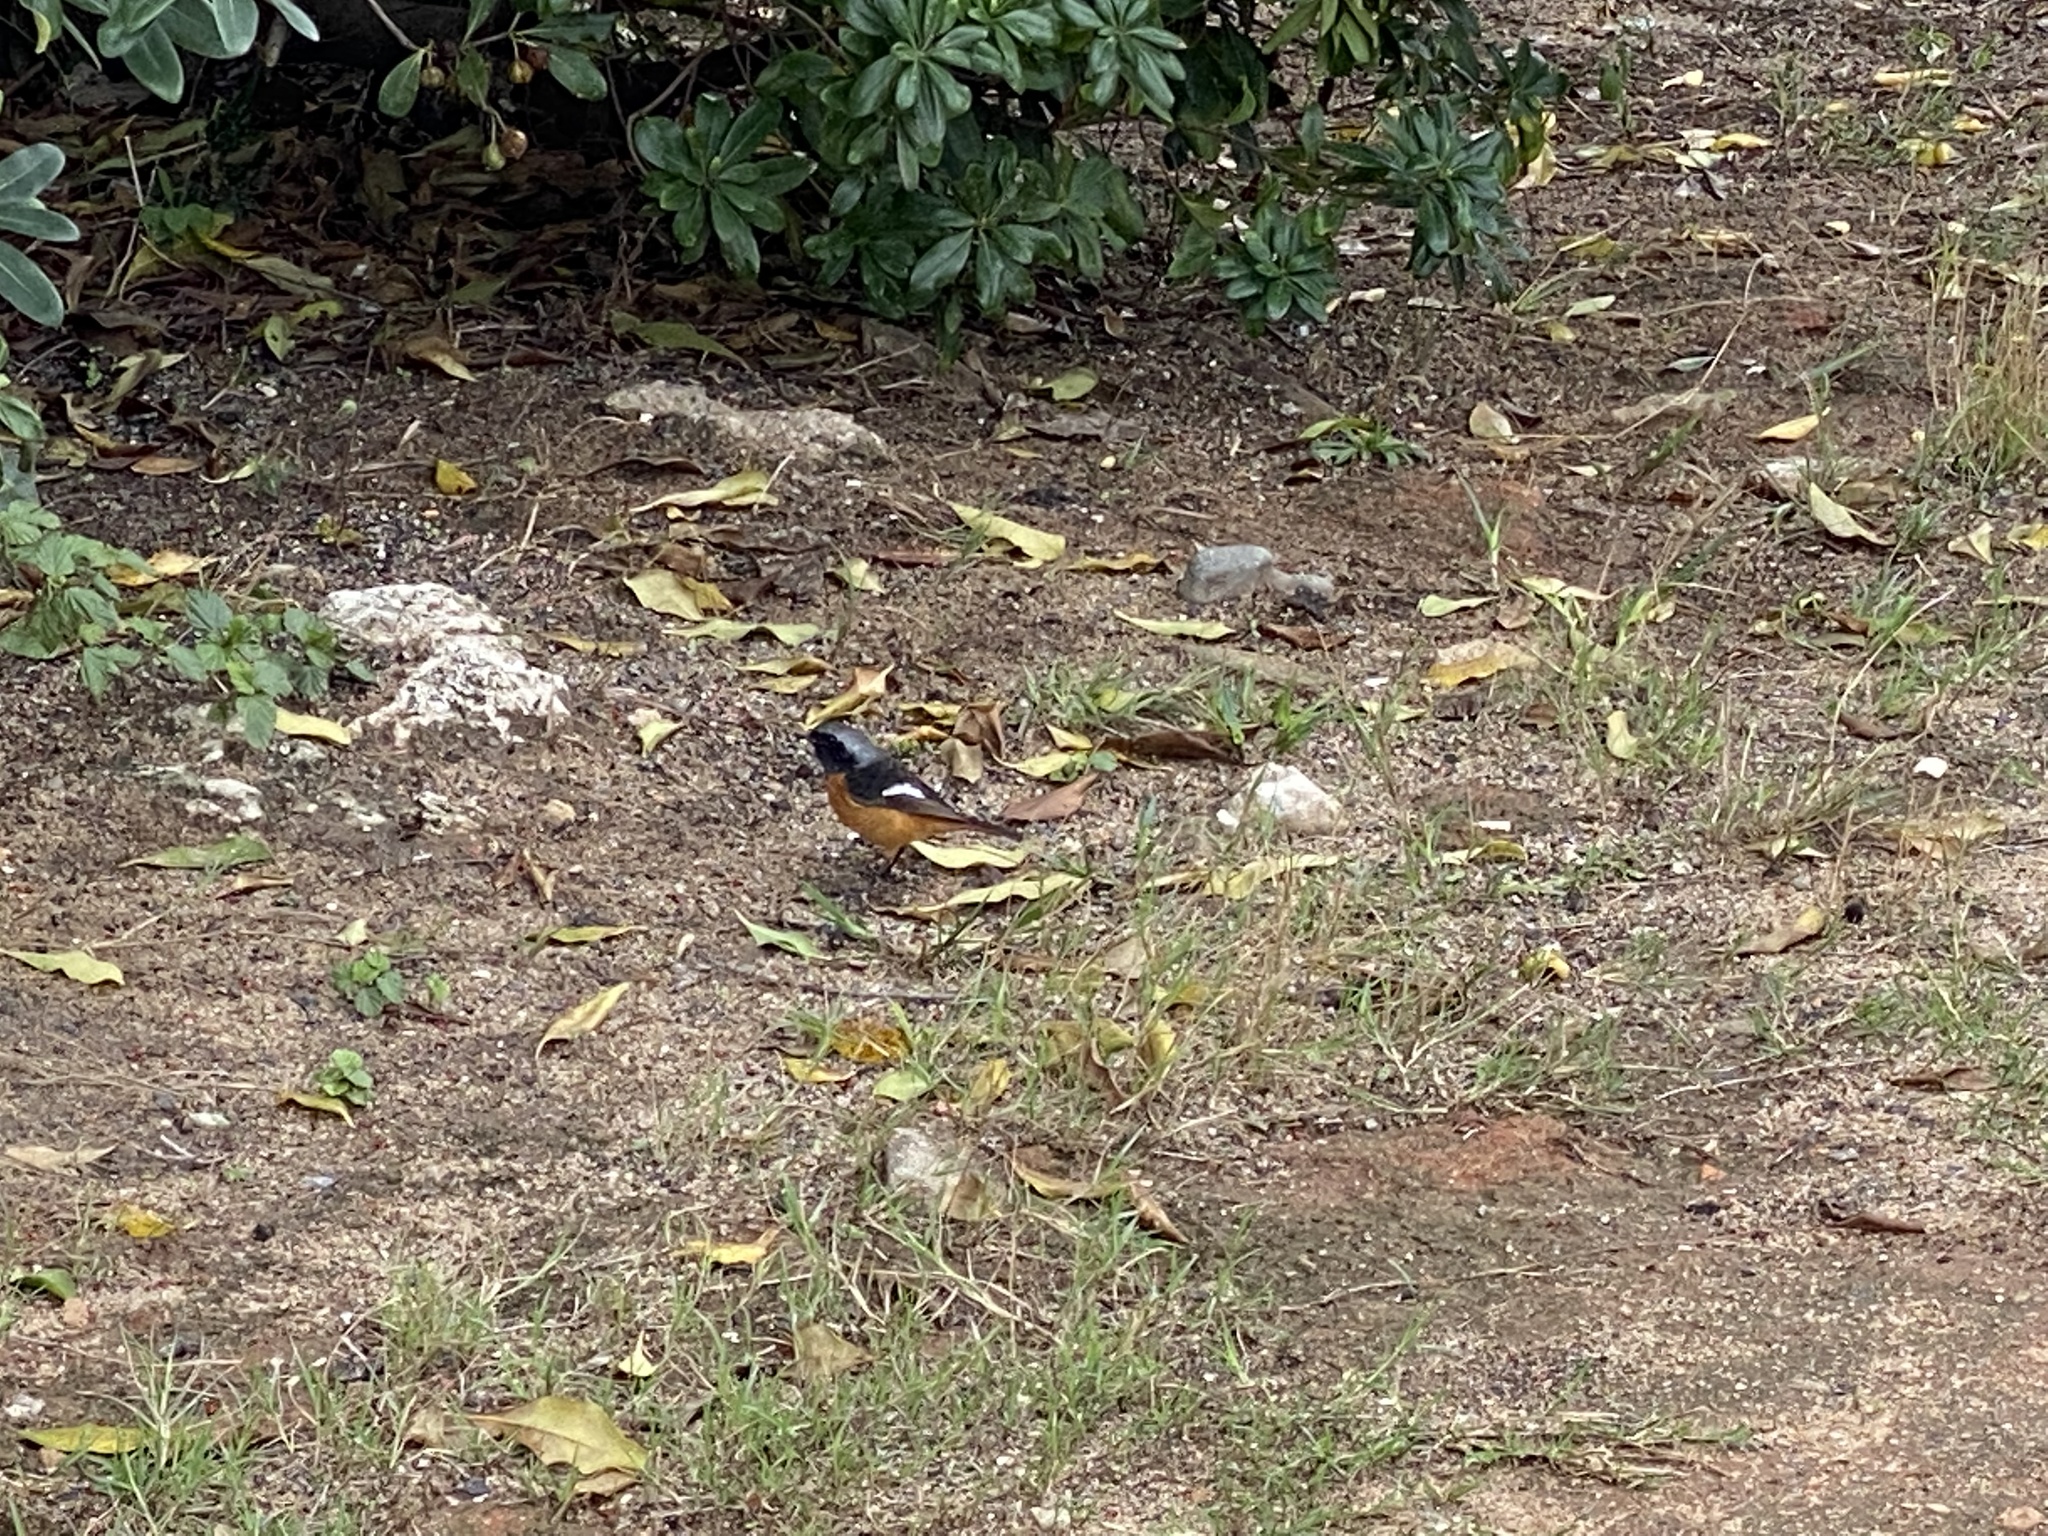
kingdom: Animalia
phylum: Chordata
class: Aves
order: Passeriformes
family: Muscicapidae
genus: Phoenicurus
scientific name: Phoenicurus auroreus
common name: Daurian redstart
